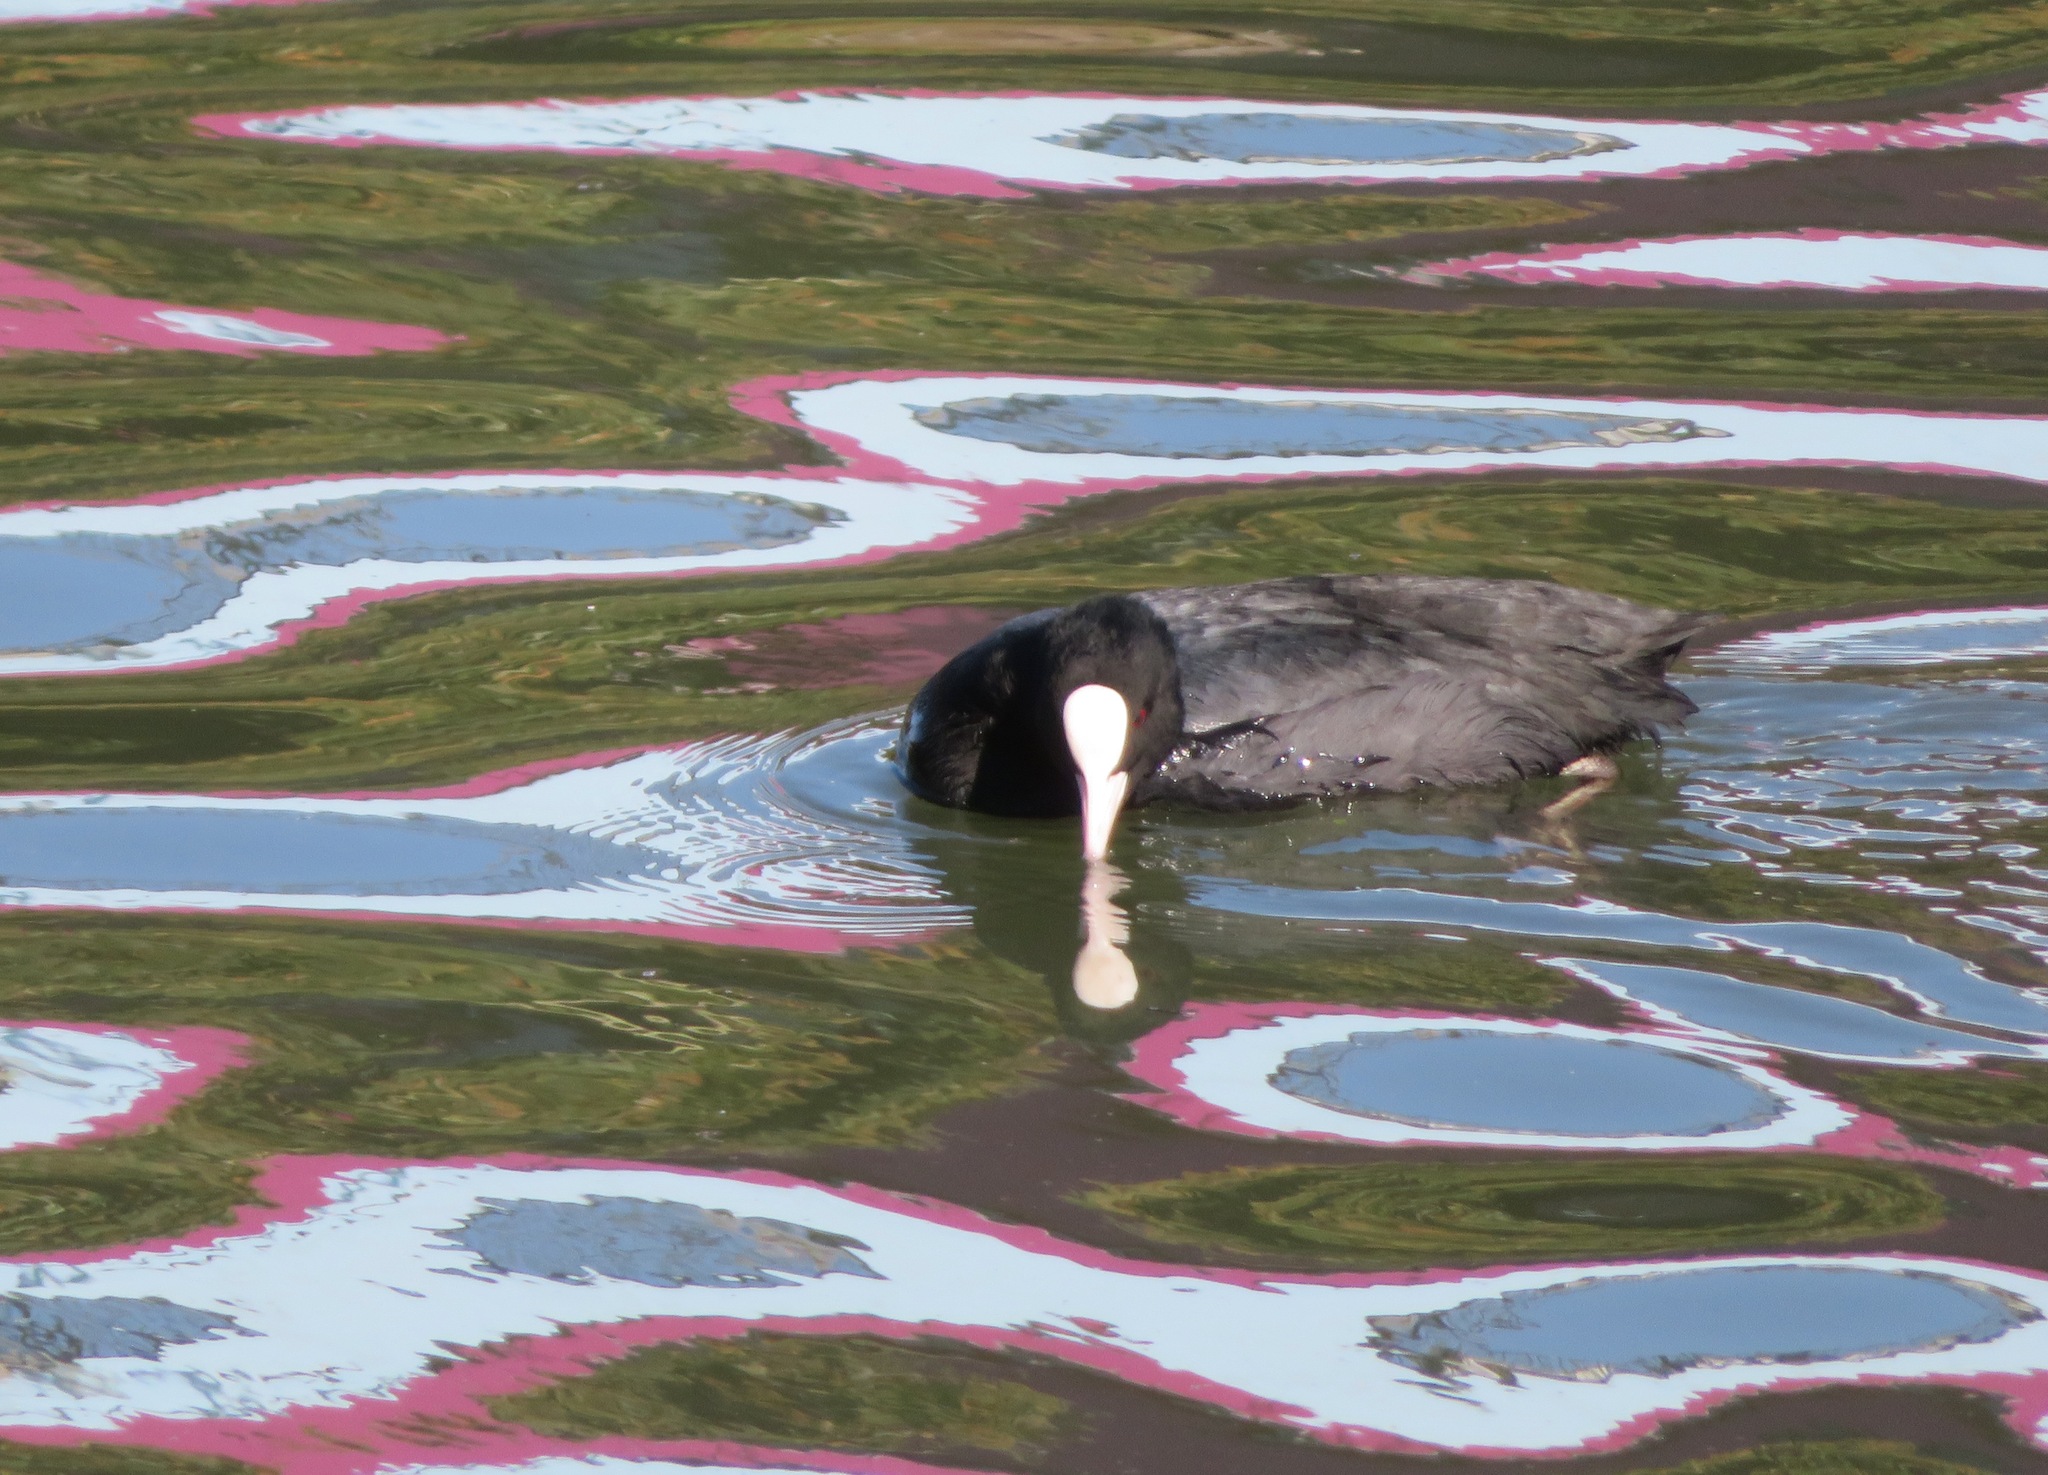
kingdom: Animalia
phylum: Chordata
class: Aves
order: Gruiformes
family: Rallidae
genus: Fulica
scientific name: Fulica atra
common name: Eurasian coot
